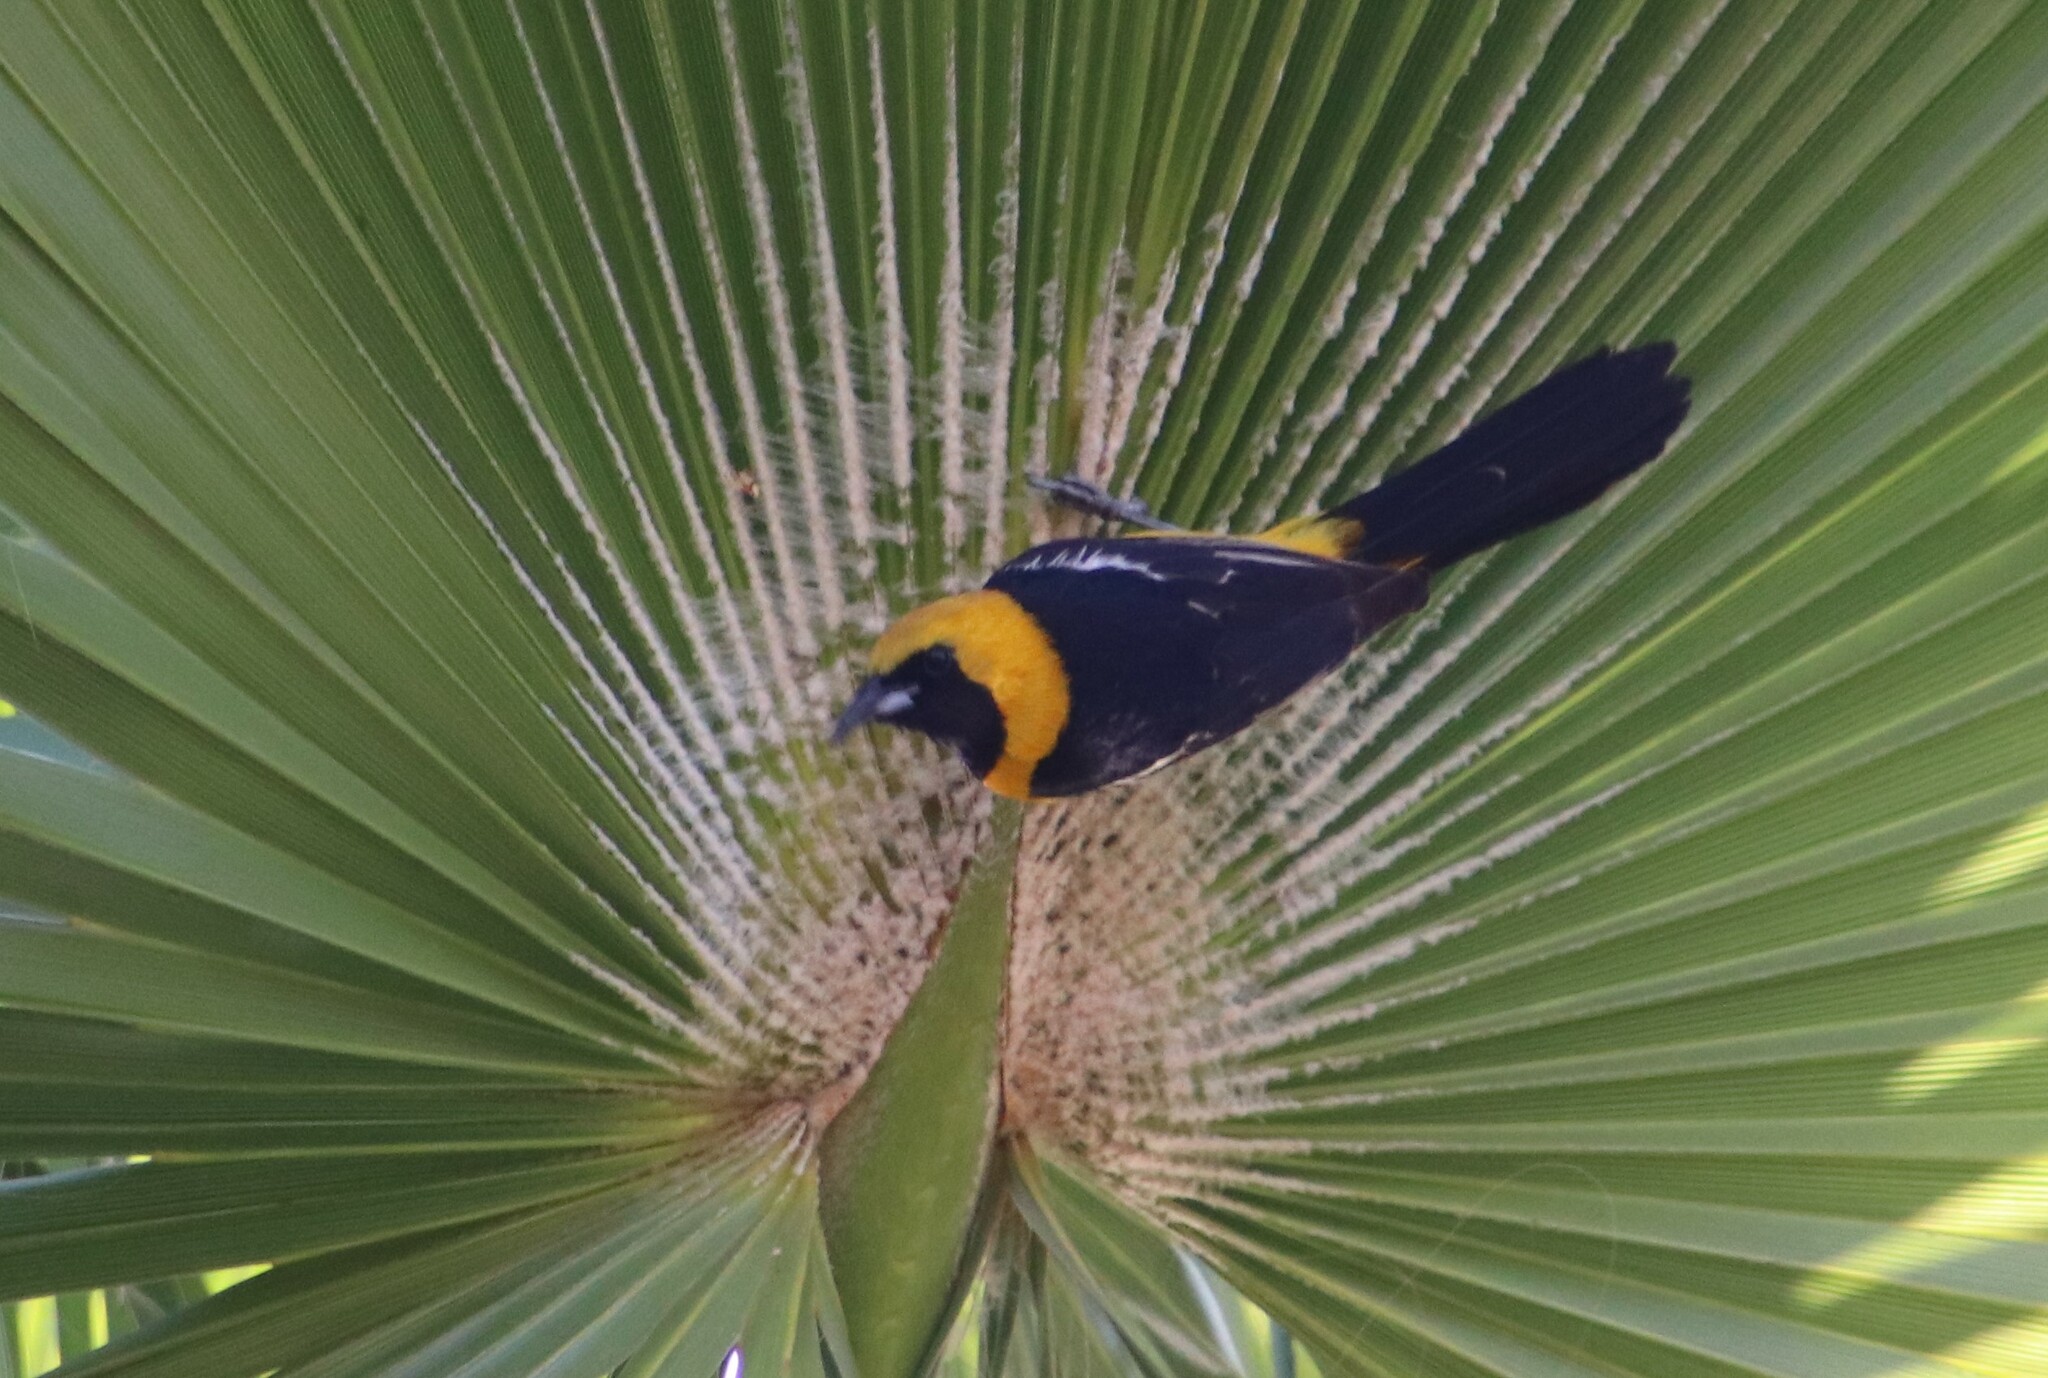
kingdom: Animalia
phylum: Chordata
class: Aves
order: Passeriformes
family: Icteridae
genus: Icterus
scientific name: Icterus cucullatus
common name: Hooded oriole
